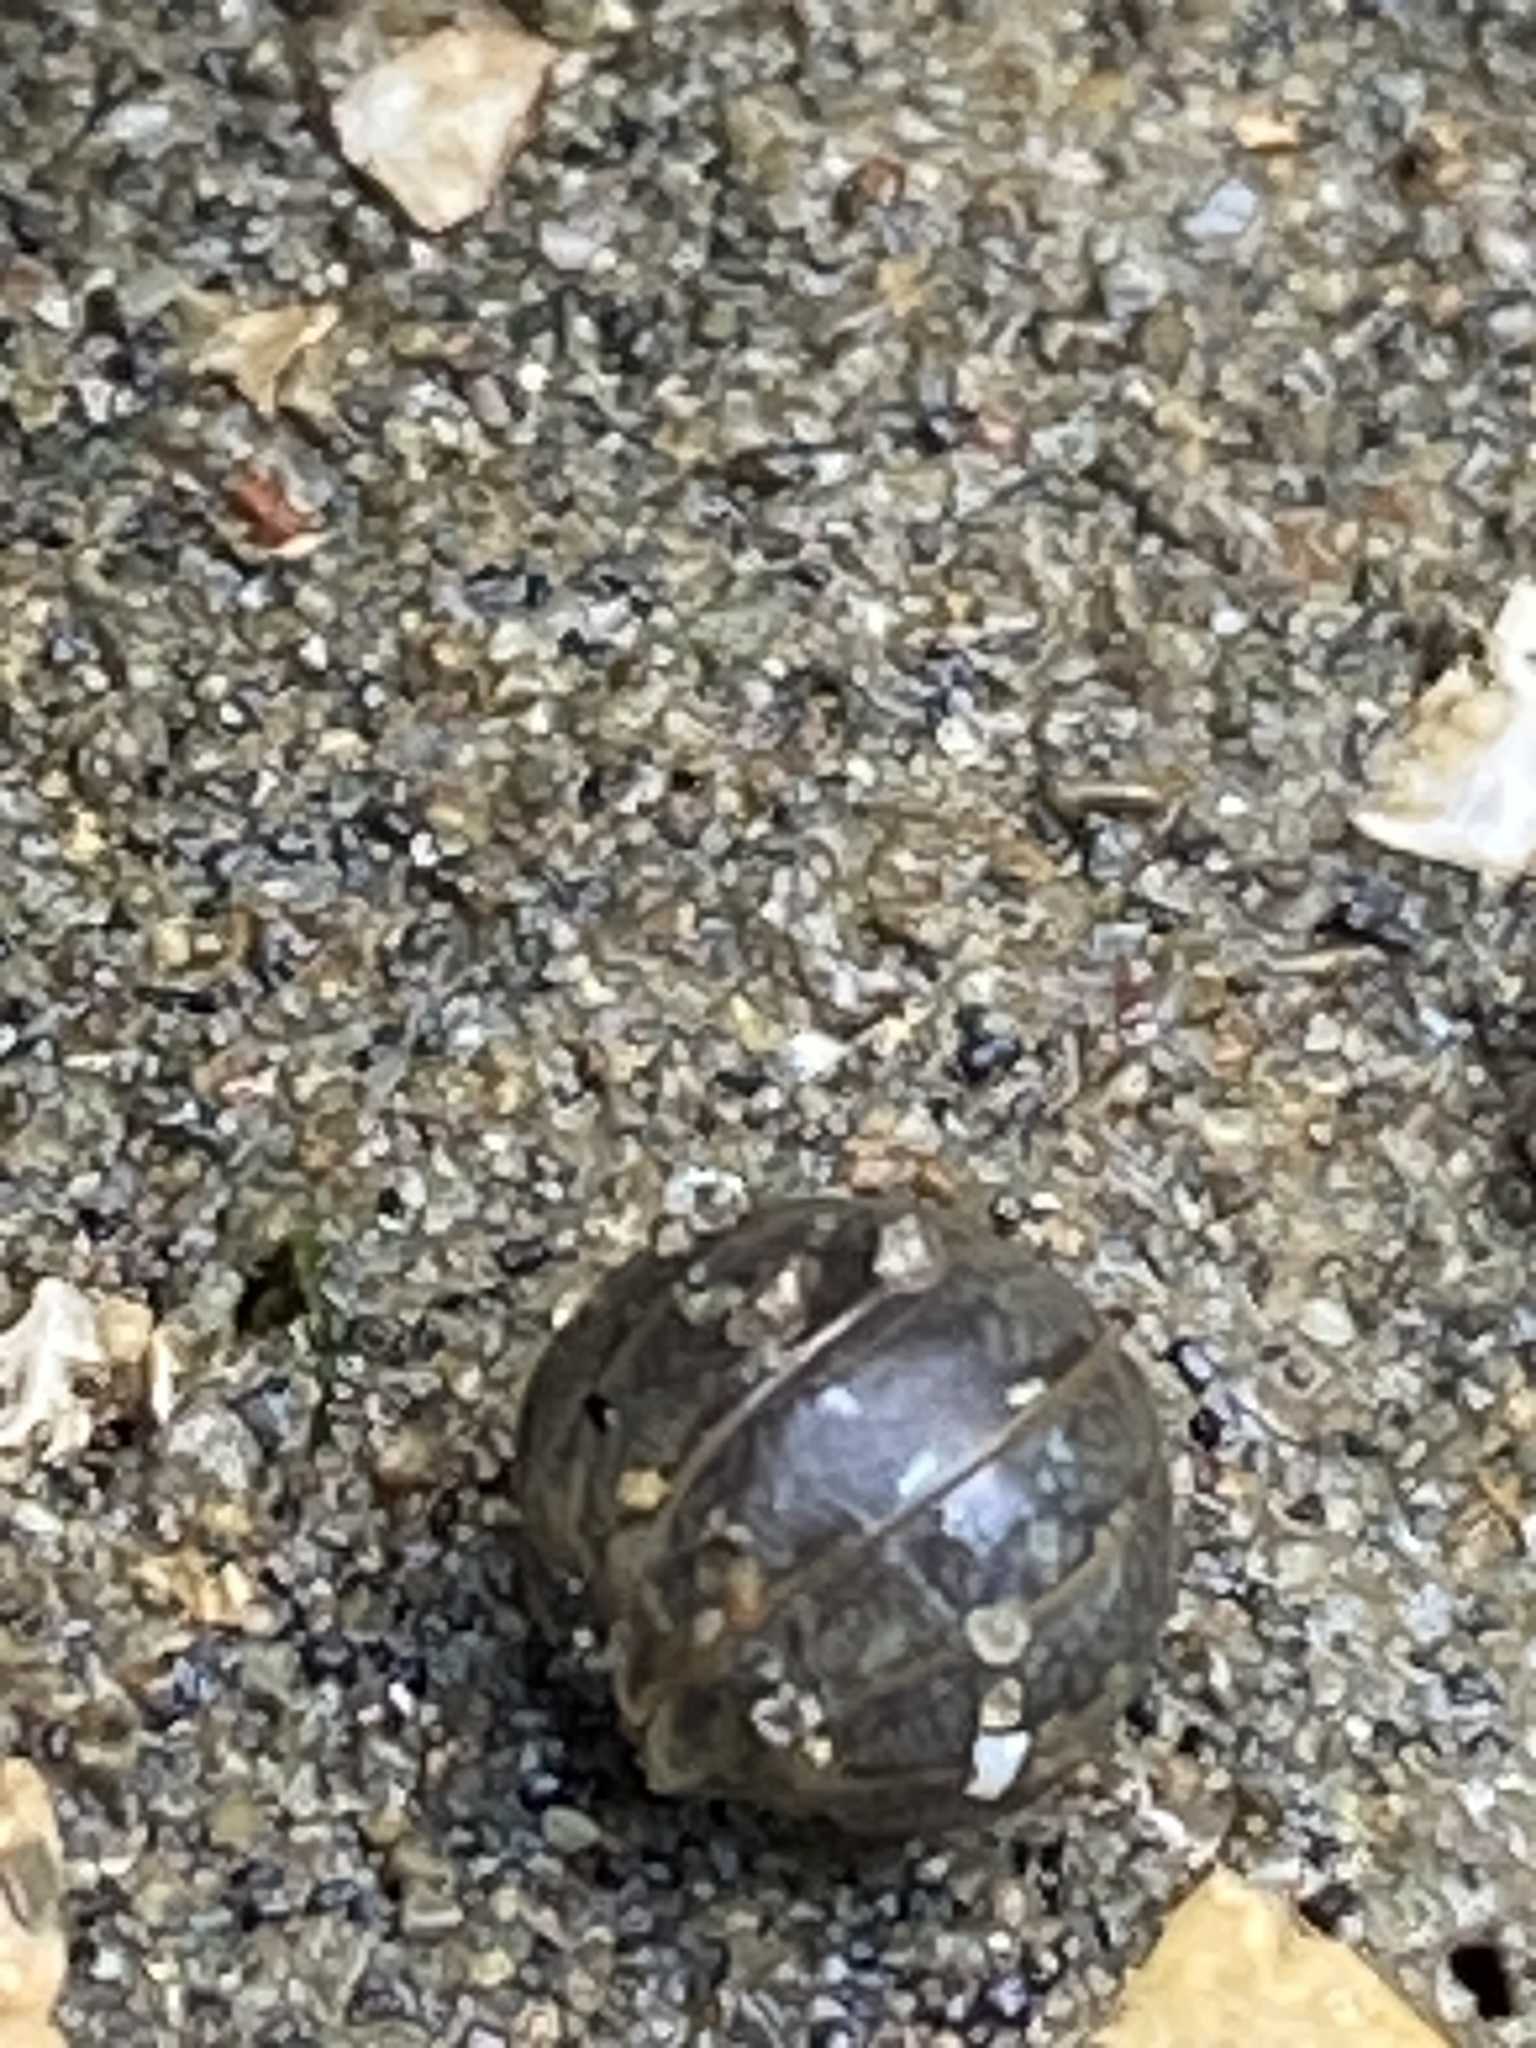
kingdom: Animalia
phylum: Arthropoda
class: Malacostraca
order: Isopoda
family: Armadillidiidae
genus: Armadillidium
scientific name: Armadillidium vulgare
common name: Common pill woodlouse
